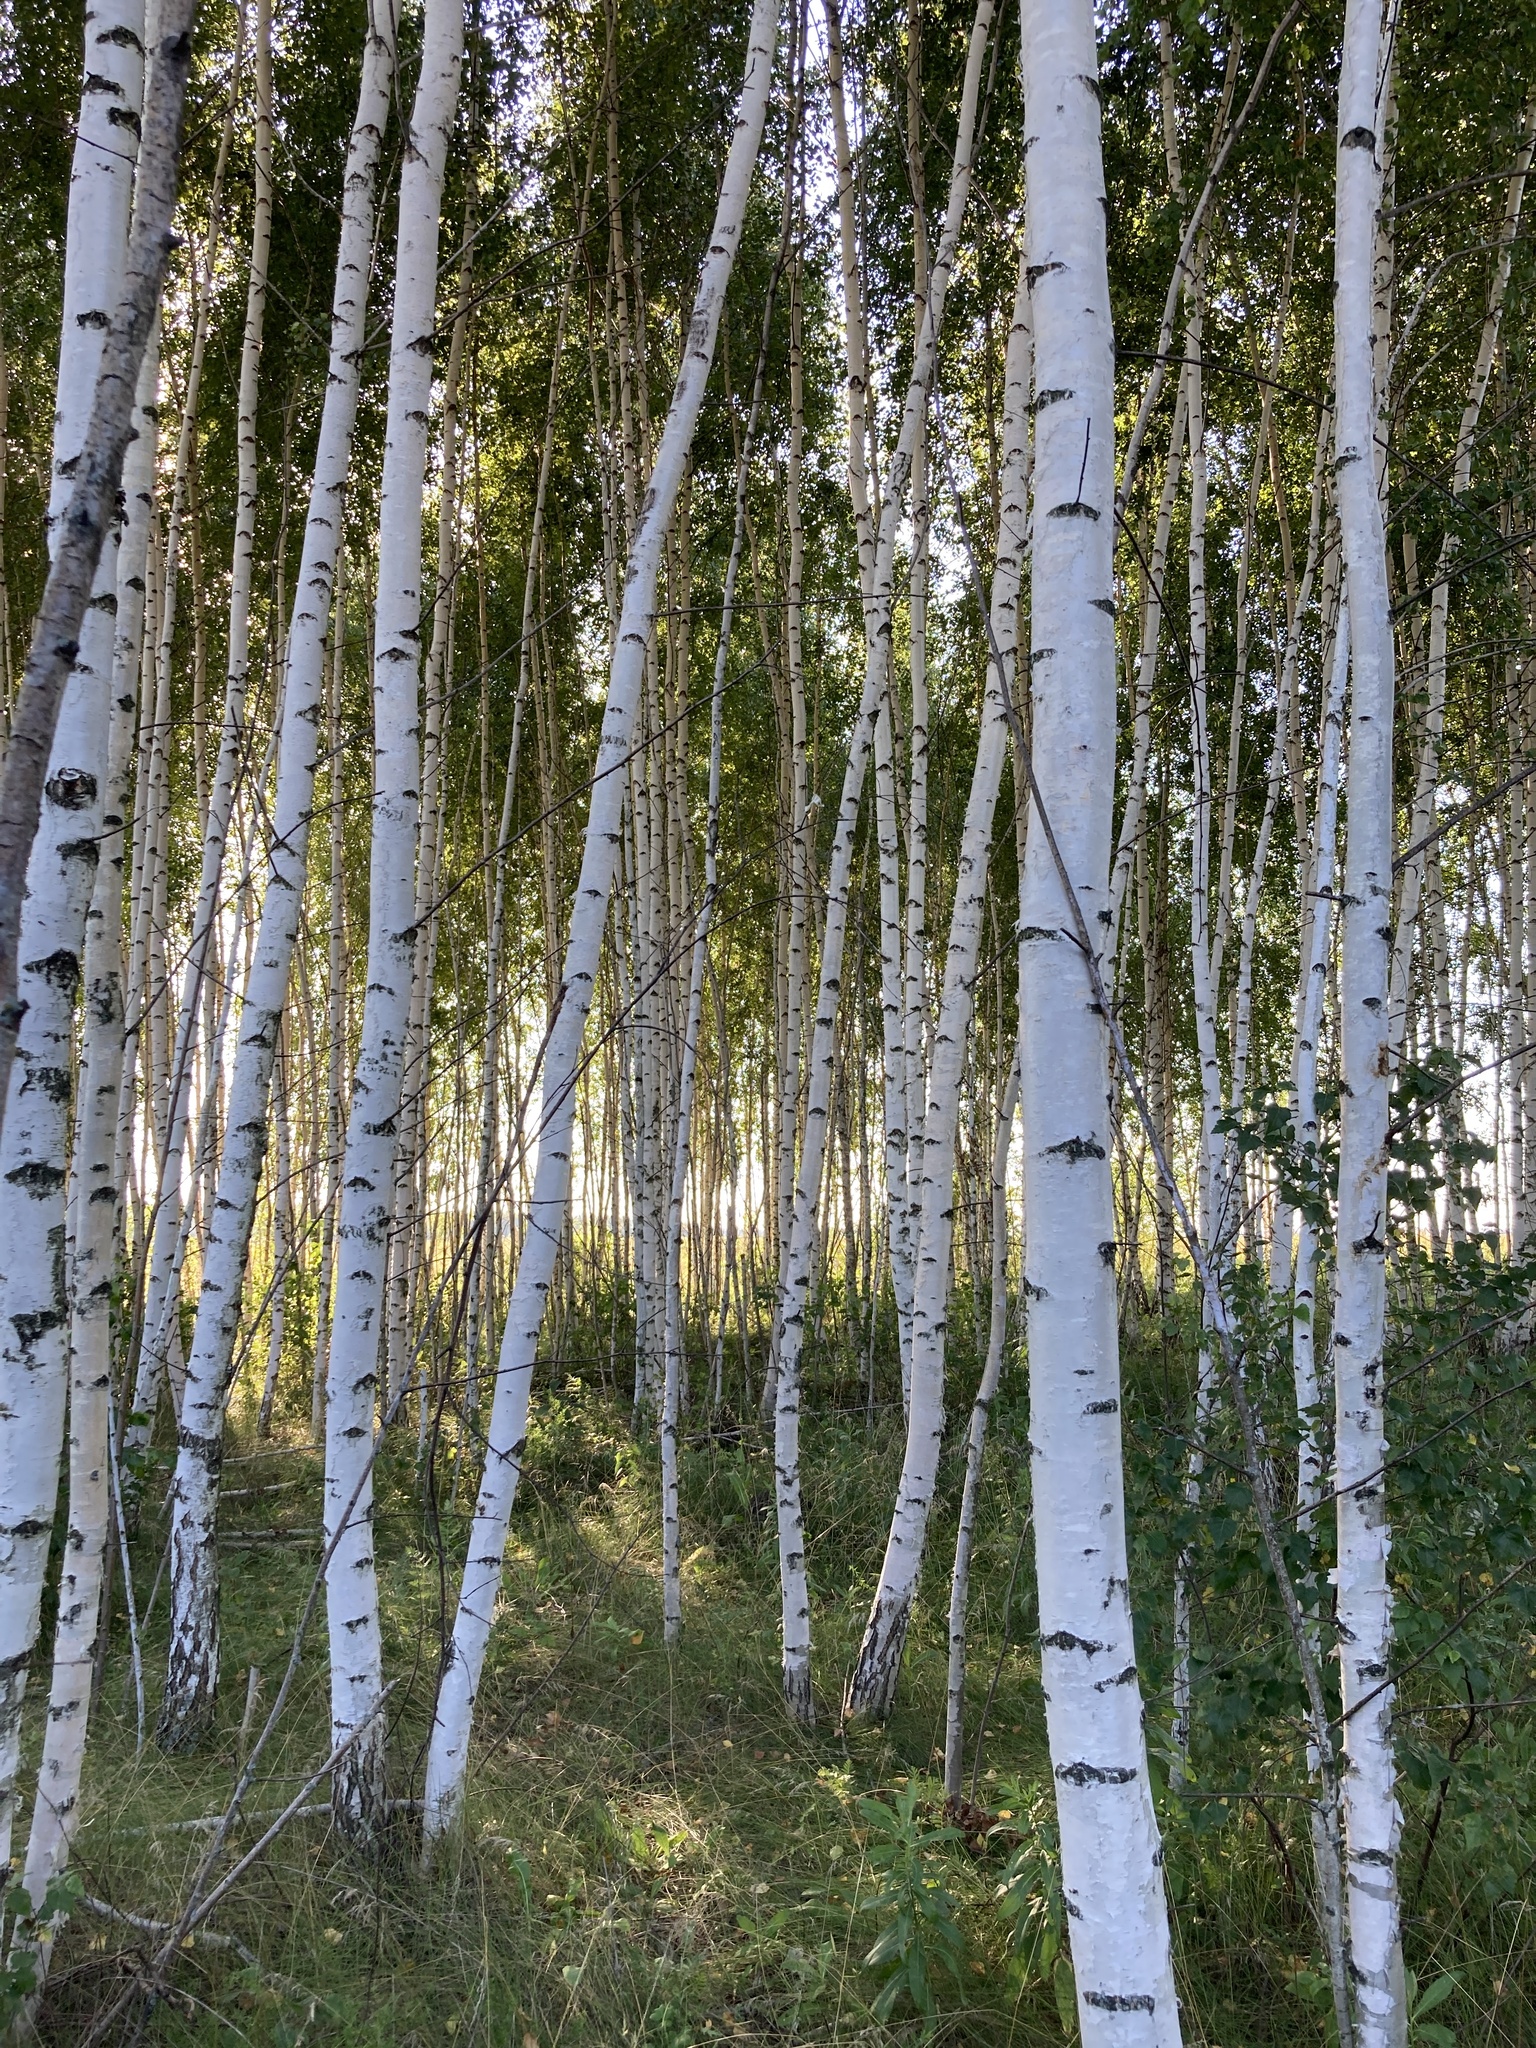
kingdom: Plantae
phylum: Tracheophyta
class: Magnoliopsida
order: Fagales
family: Betulaceae
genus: Betula
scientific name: Betula pendula
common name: Silver birch
